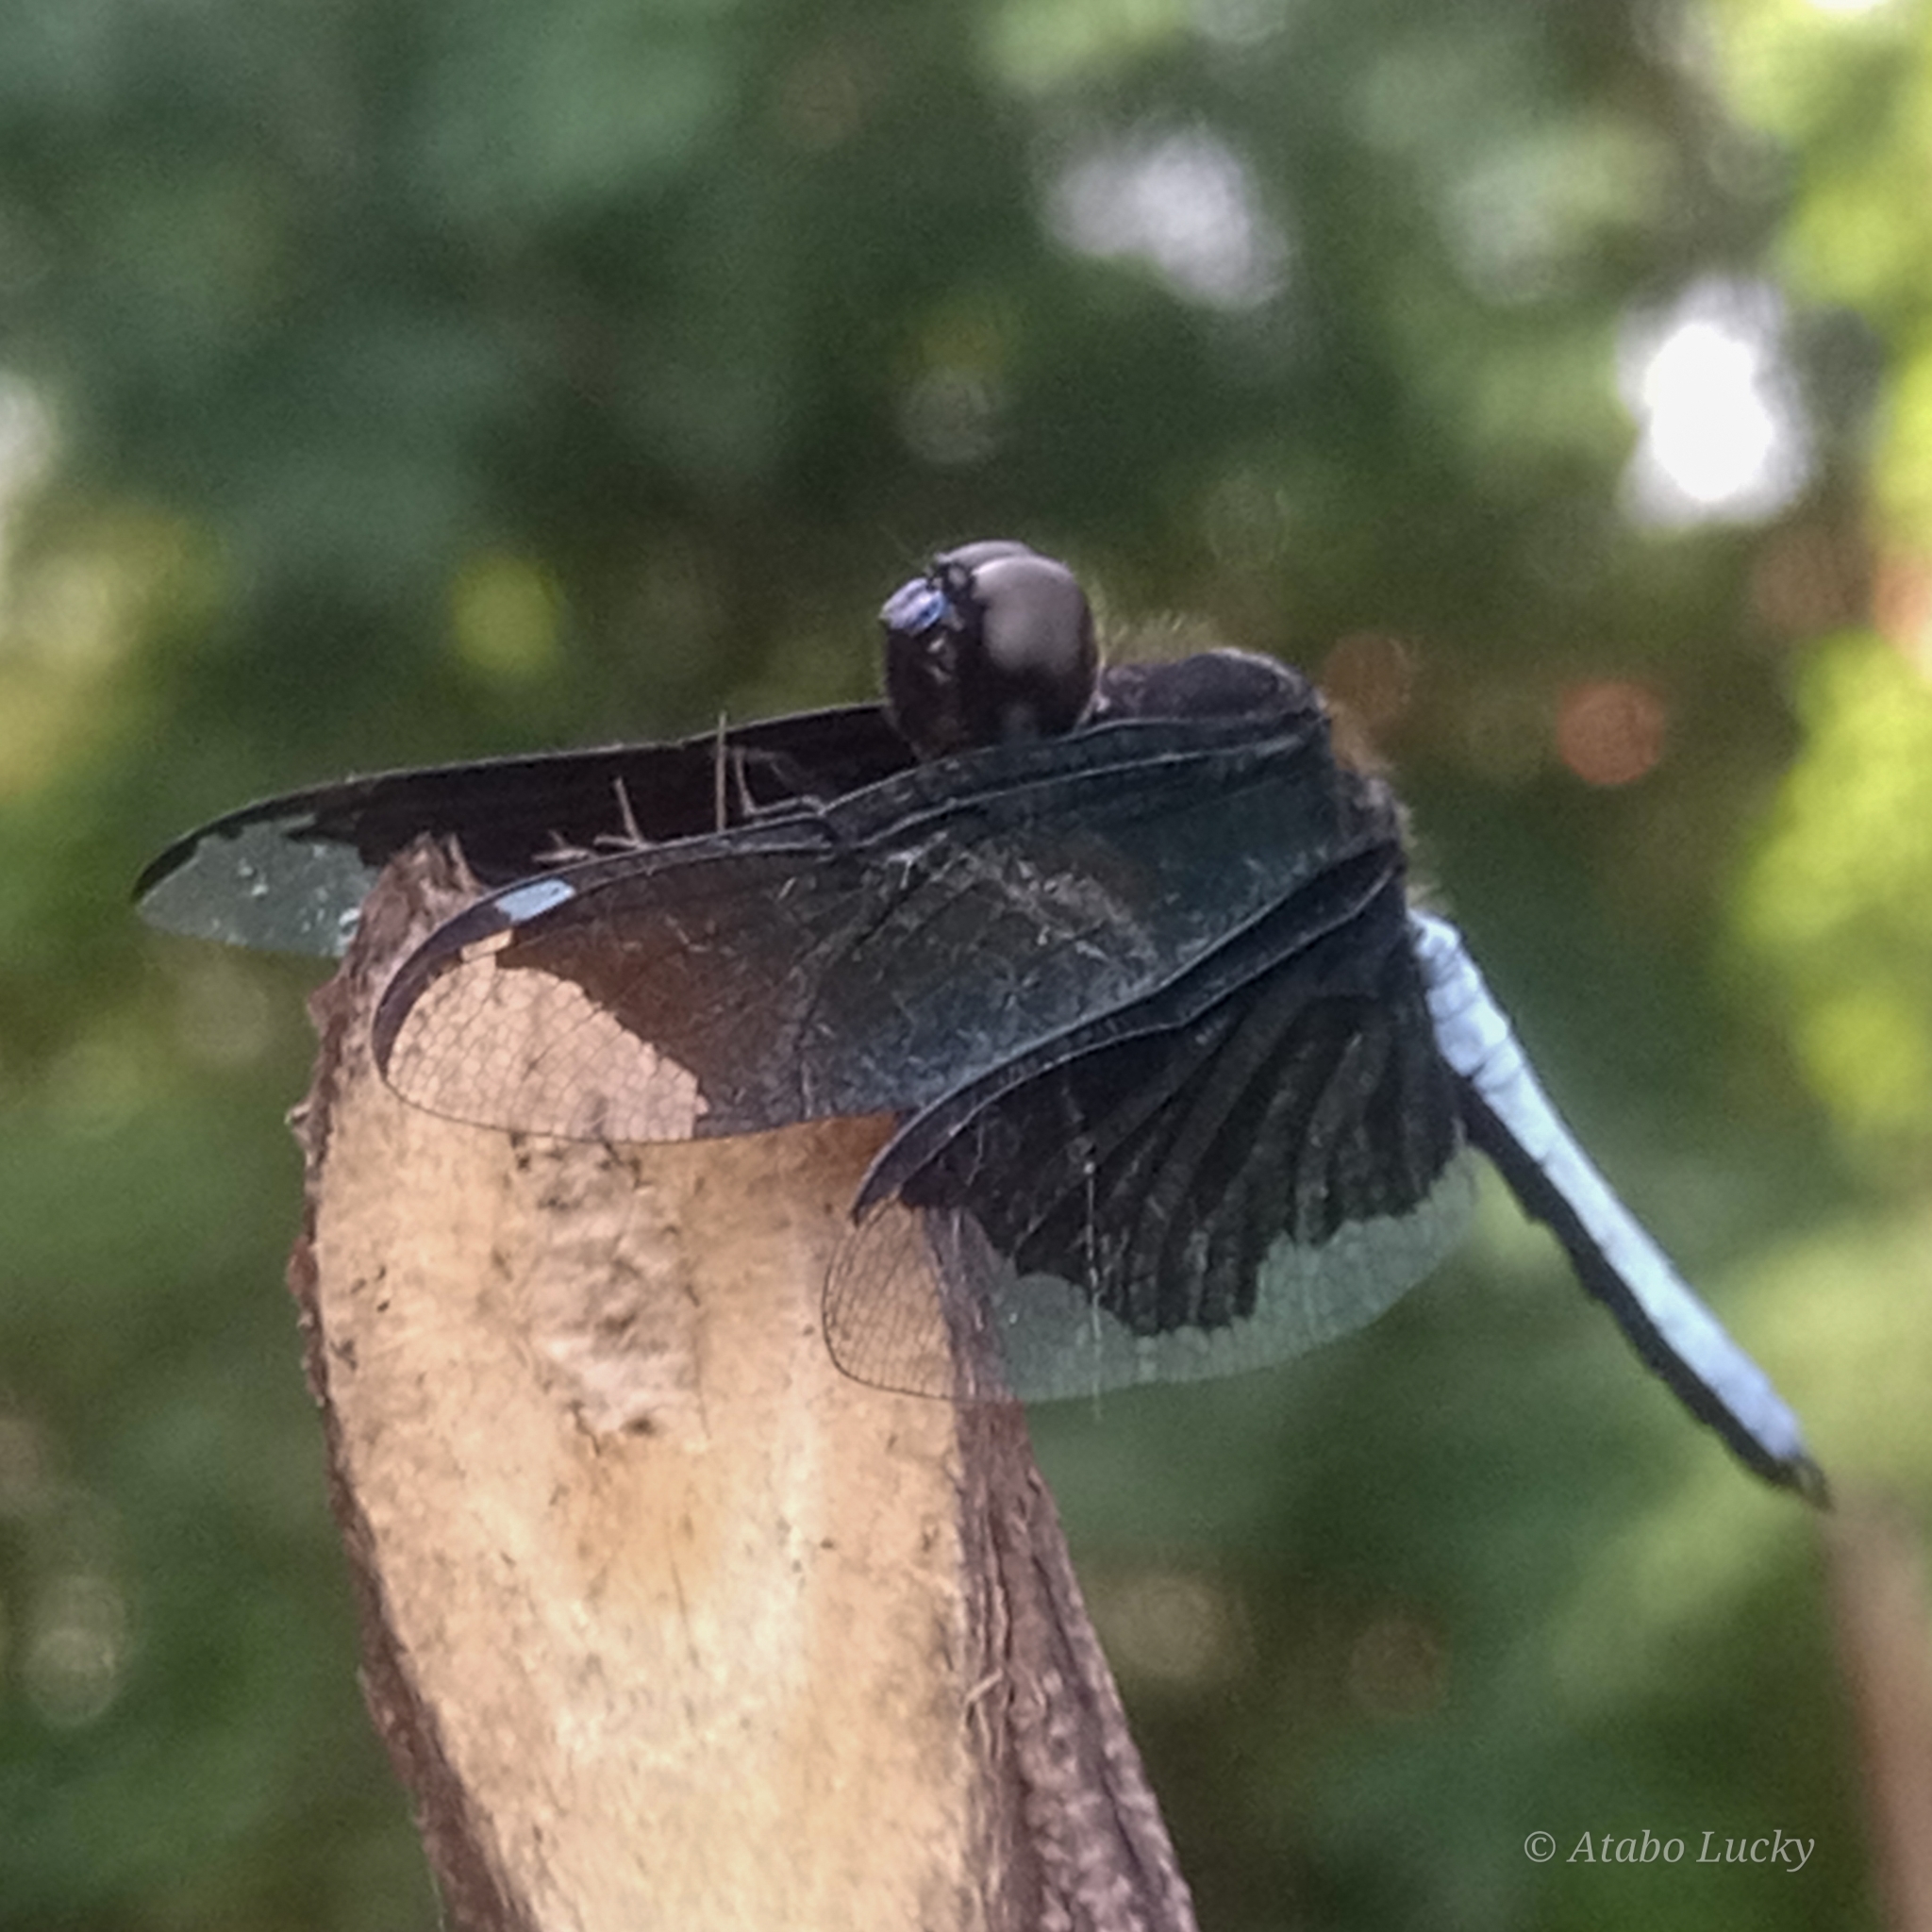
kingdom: Animalia
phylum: Arthropoda
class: Insecta
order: Odonata
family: Libellulidae
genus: Palpopleura
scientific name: Palpopleura lucia
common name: Lucia widow
